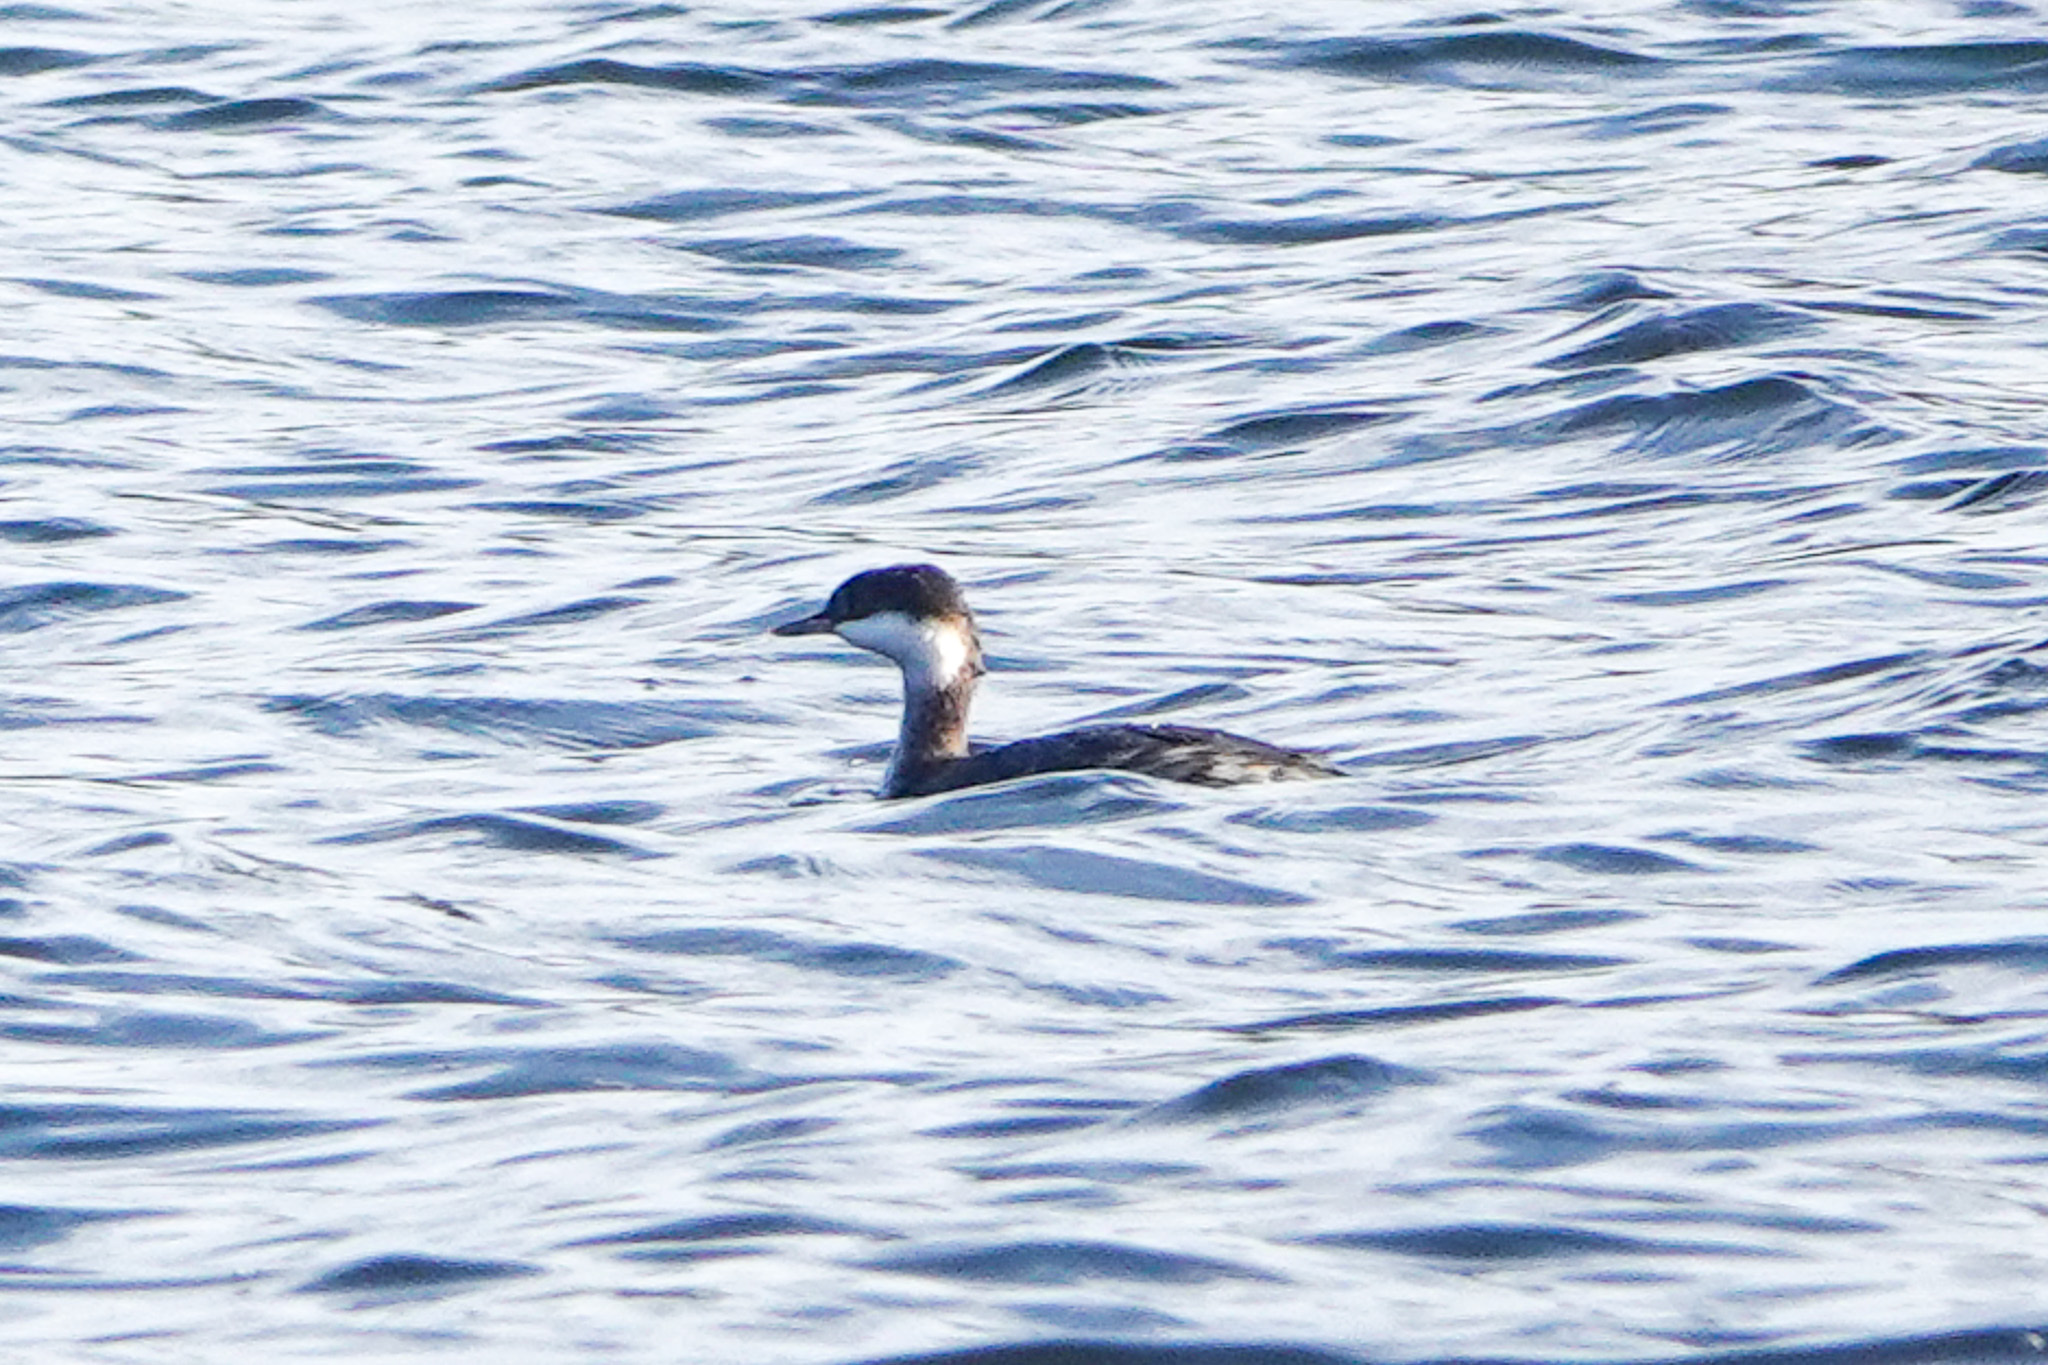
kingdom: Animalia
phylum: Chordata
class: Aves
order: Podicipediformes
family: Podicipedidae
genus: Podiceps
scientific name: Podiceps auritus
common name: Horned grebe
